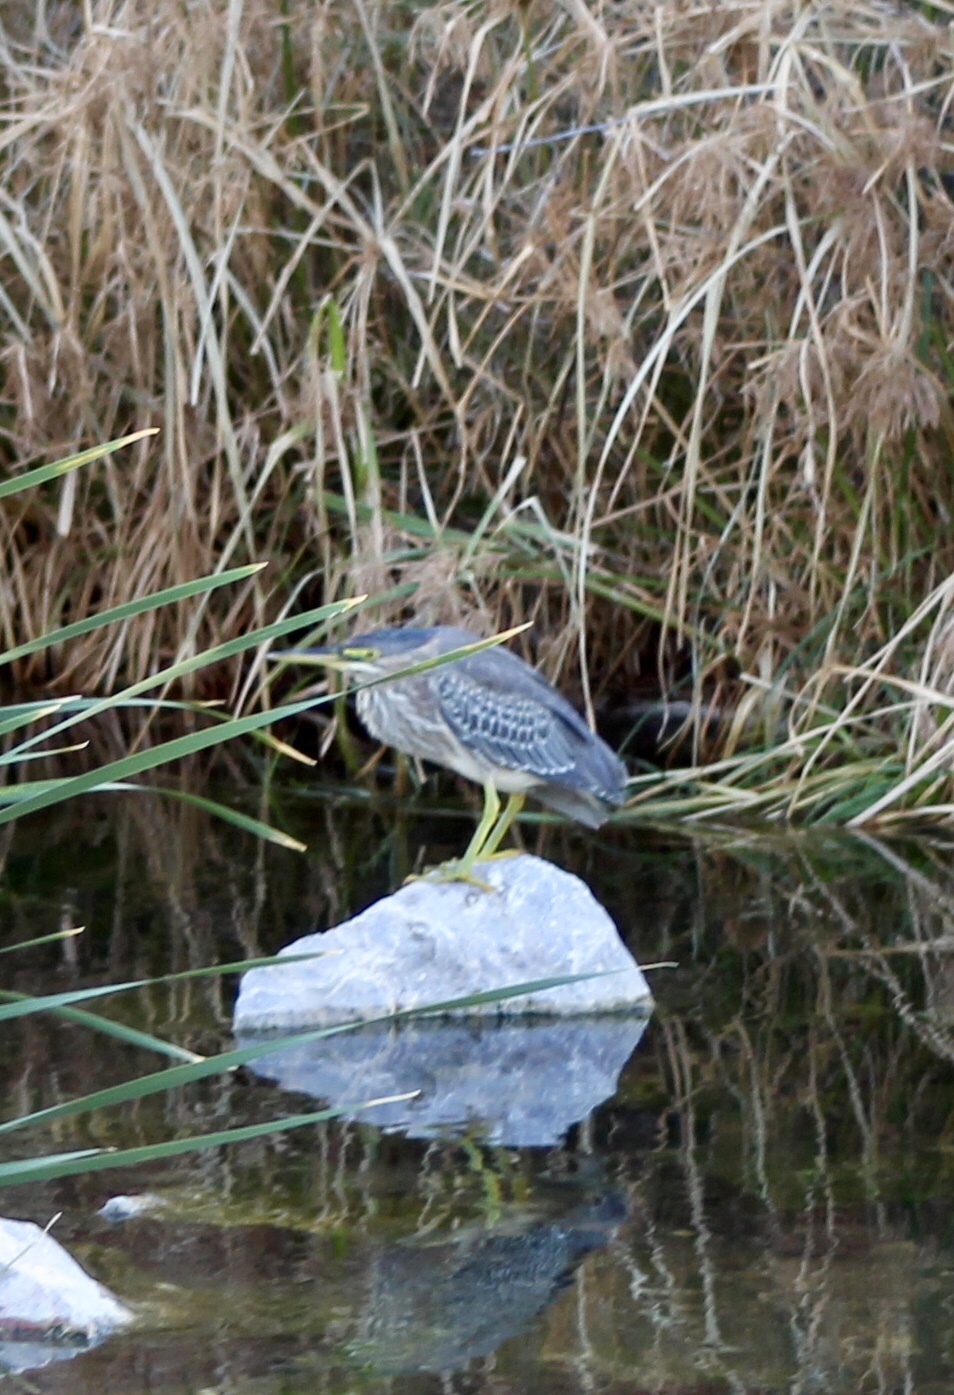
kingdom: Animalia
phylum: Chordata
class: Aves
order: Pelecaniformes
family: Ardeidae
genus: Butorides
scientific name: Butorides virescens
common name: Green heron
